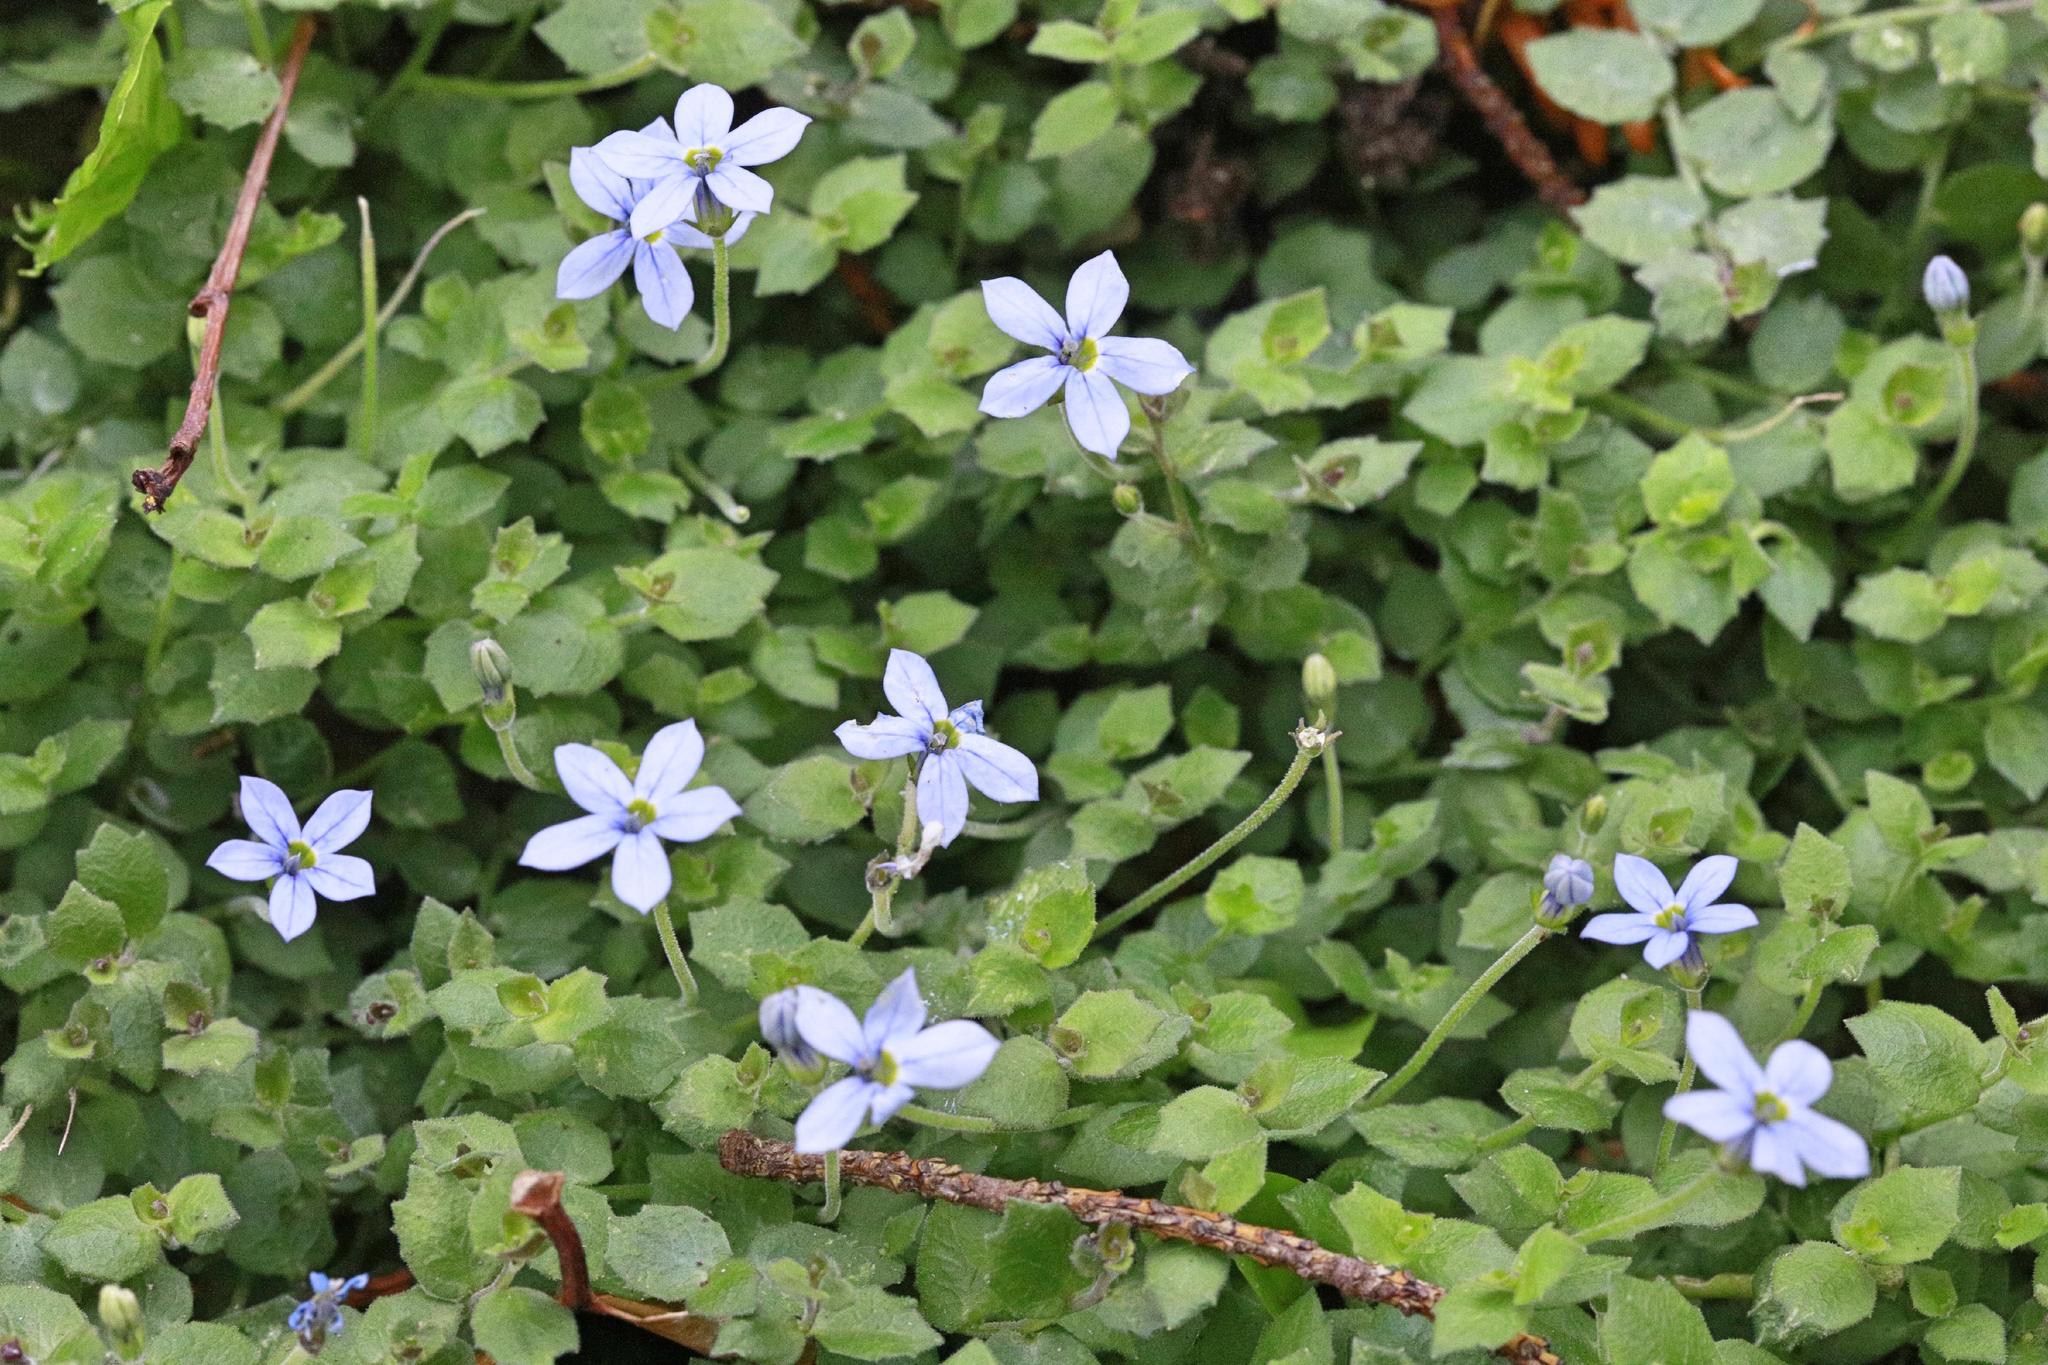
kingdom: Plantae
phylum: Tracheophyta
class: Magnoliopsida
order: Asterales
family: Campanulaceae
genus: Lobelia
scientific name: Lobelia pedunculata
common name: Matted pratia
